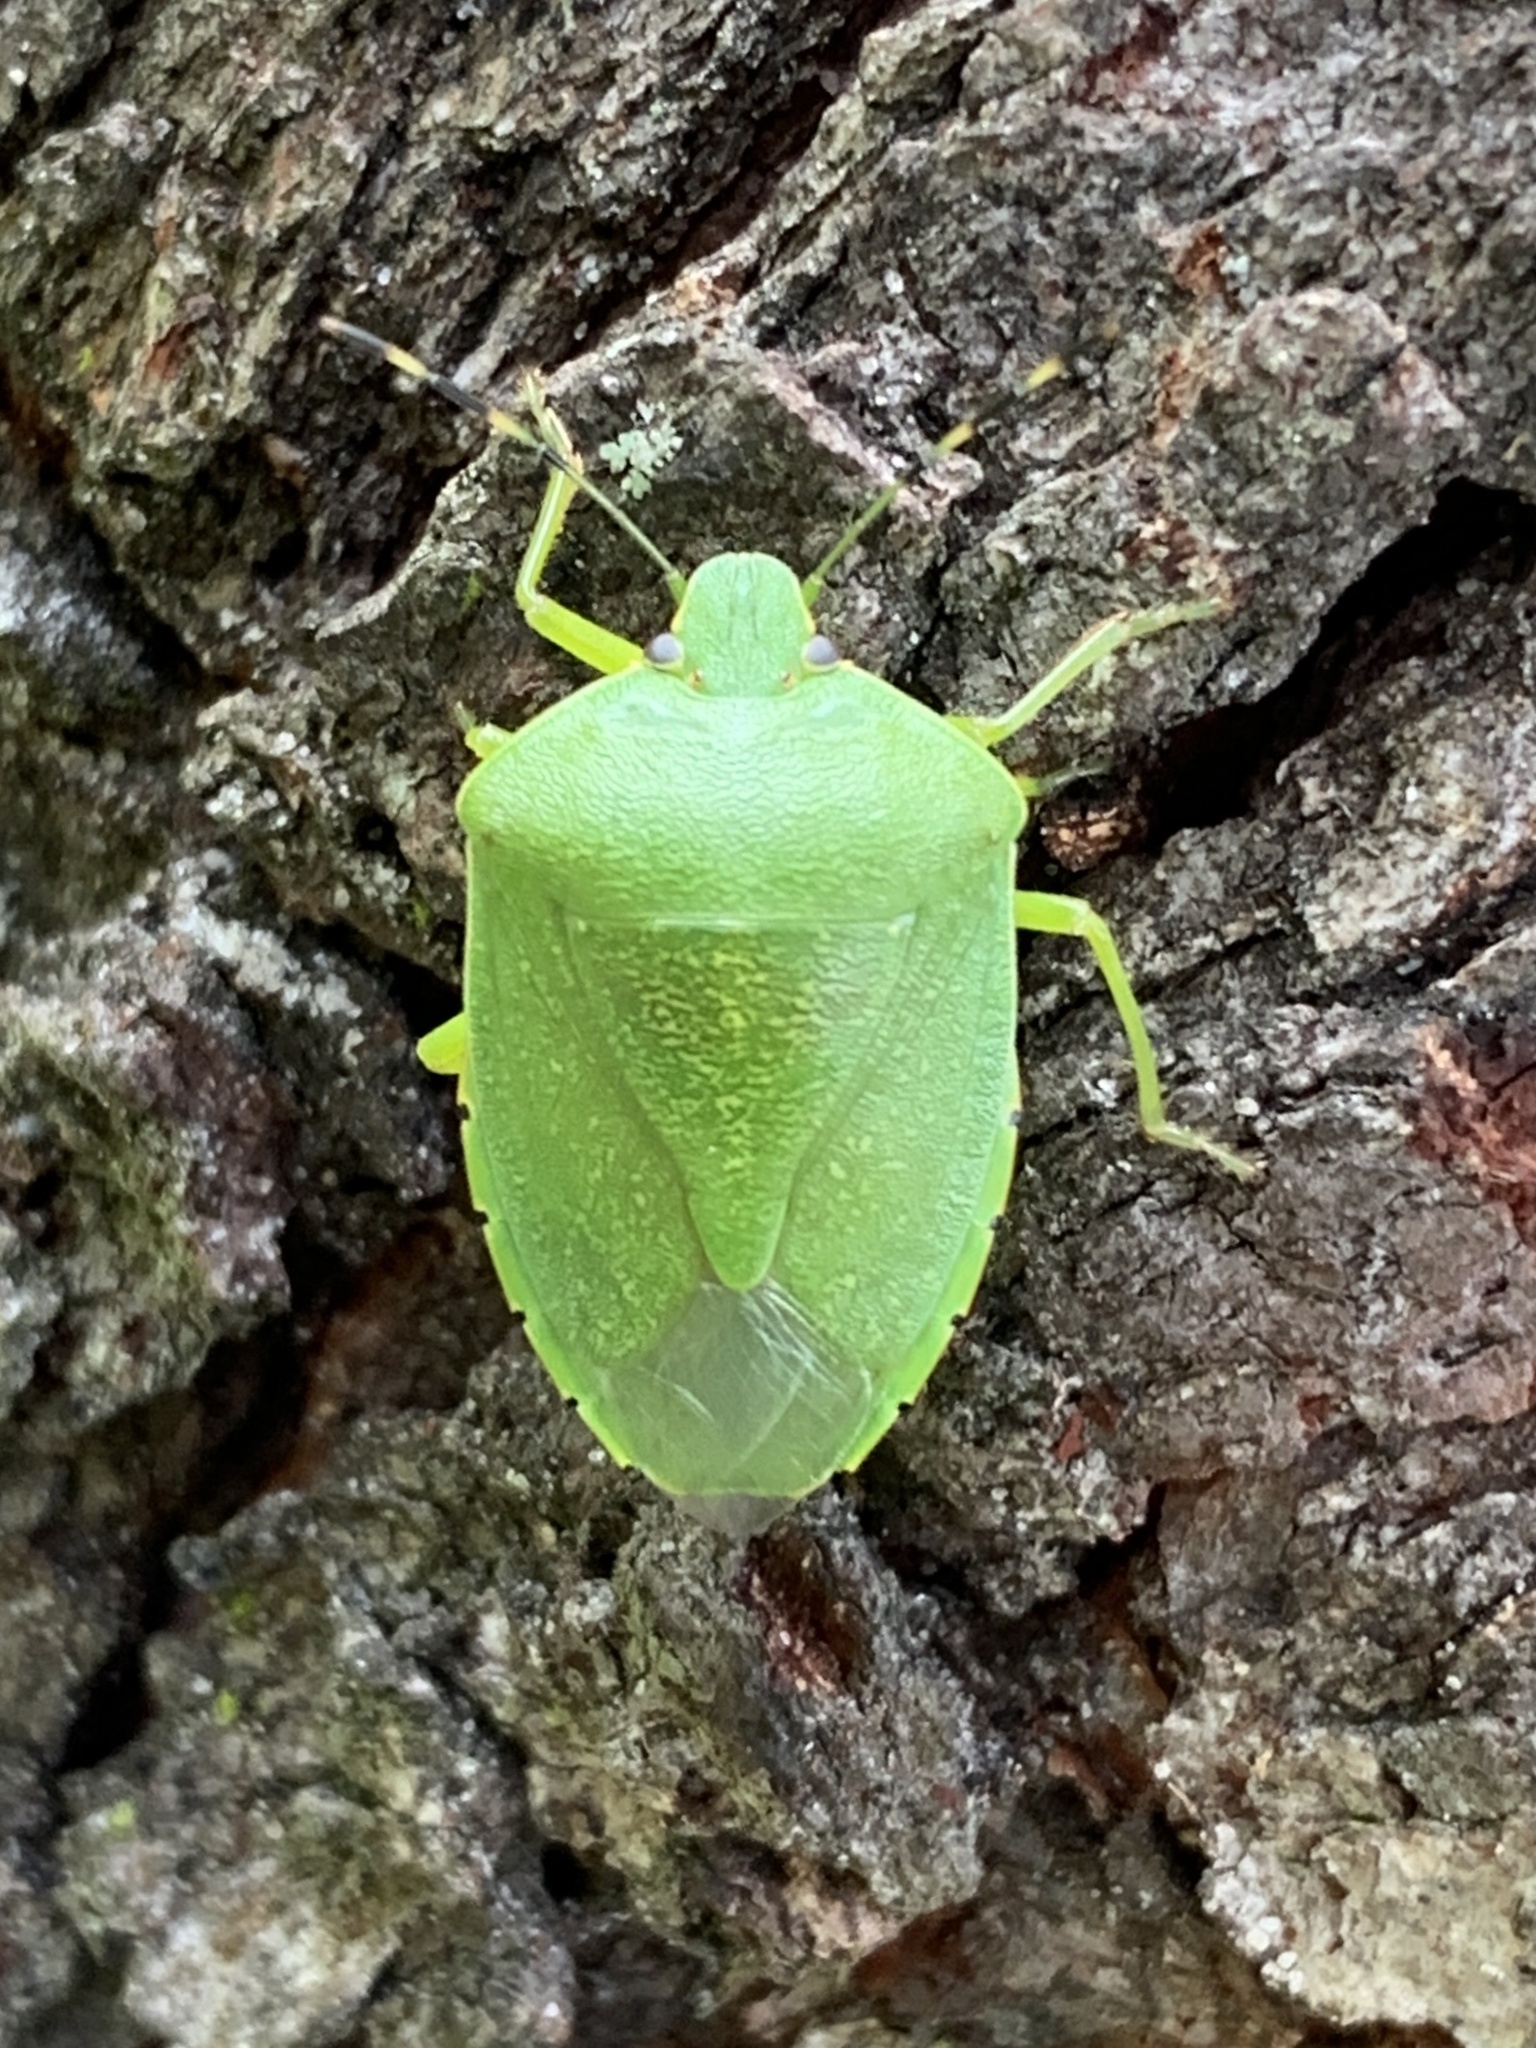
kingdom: Animalia
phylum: Arthropoda
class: Insecta
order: Hemiptera
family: Pentatomidae
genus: Chinavia
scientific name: Chinavia hilaris
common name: Green stink bug
